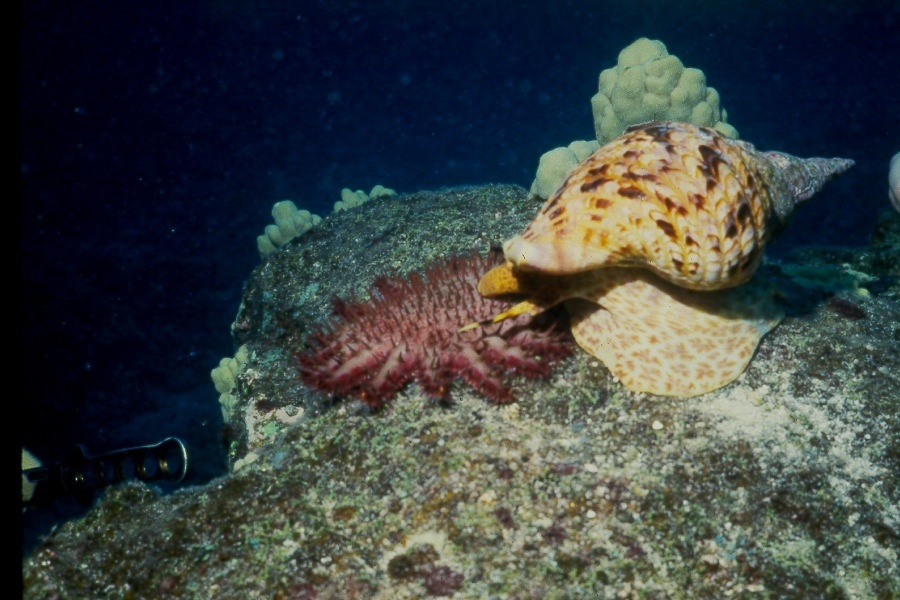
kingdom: Animalia
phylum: Mollusca
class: Gastropoda
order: Littorinimorpha
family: Charoniidae
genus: Charonia
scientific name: Charonia tritonis
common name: Pacific triton
